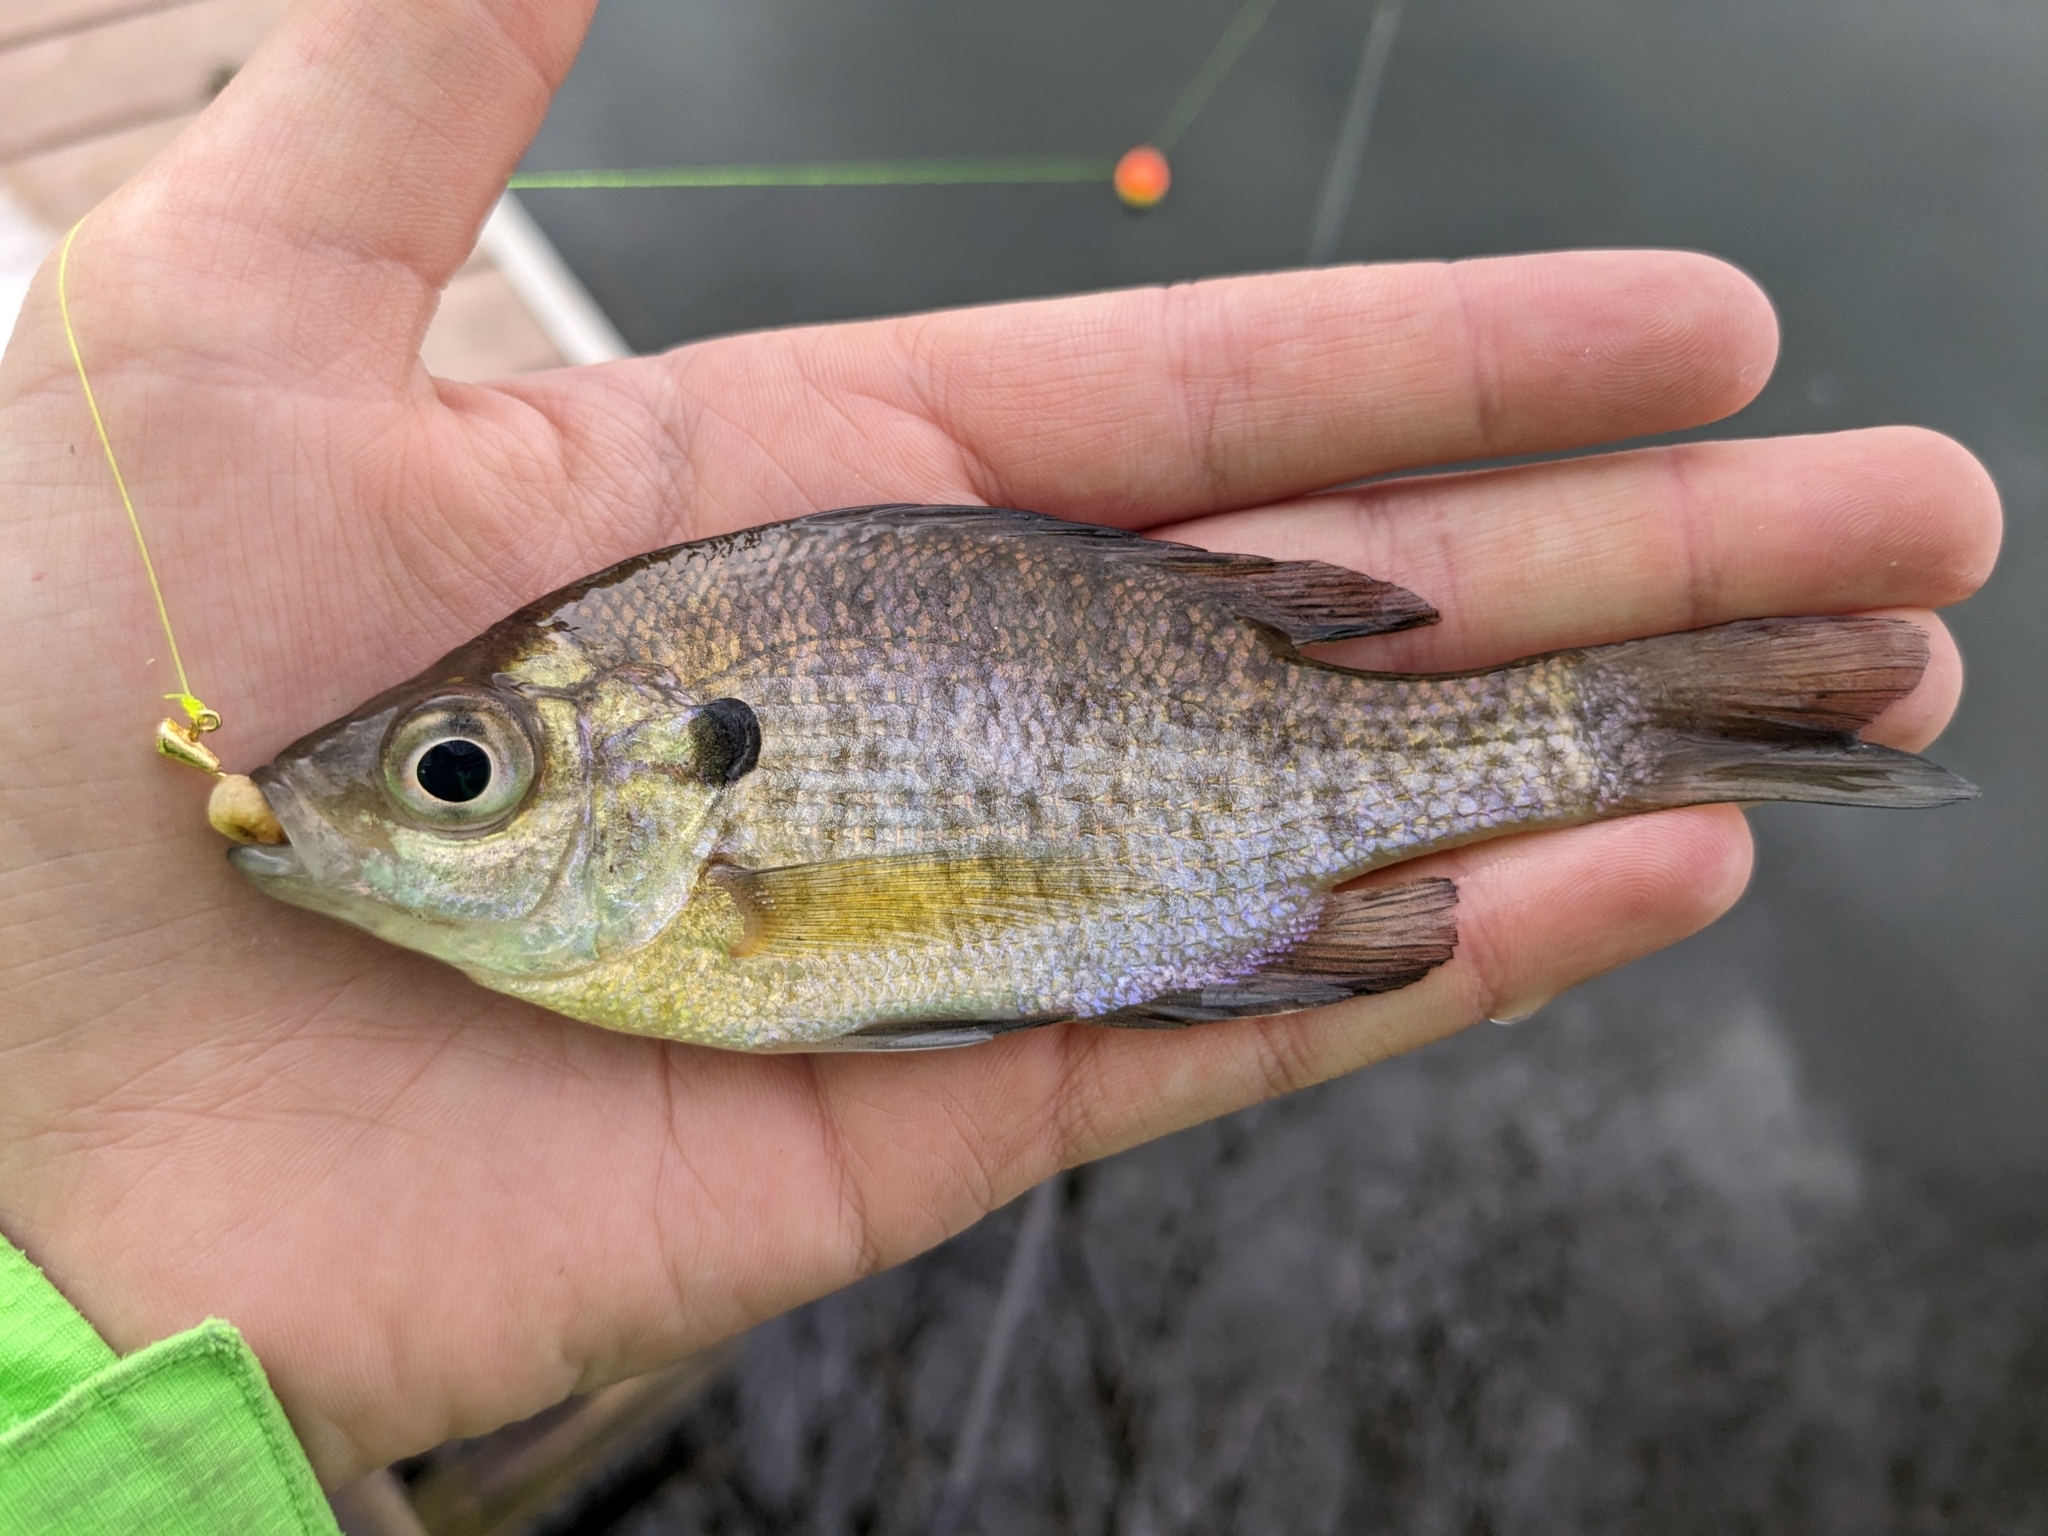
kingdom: Animalia
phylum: Chordata
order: Perciformes
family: Centrarchidae
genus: Lepomis
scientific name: Lepomis macrochirus
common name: Bluegill
